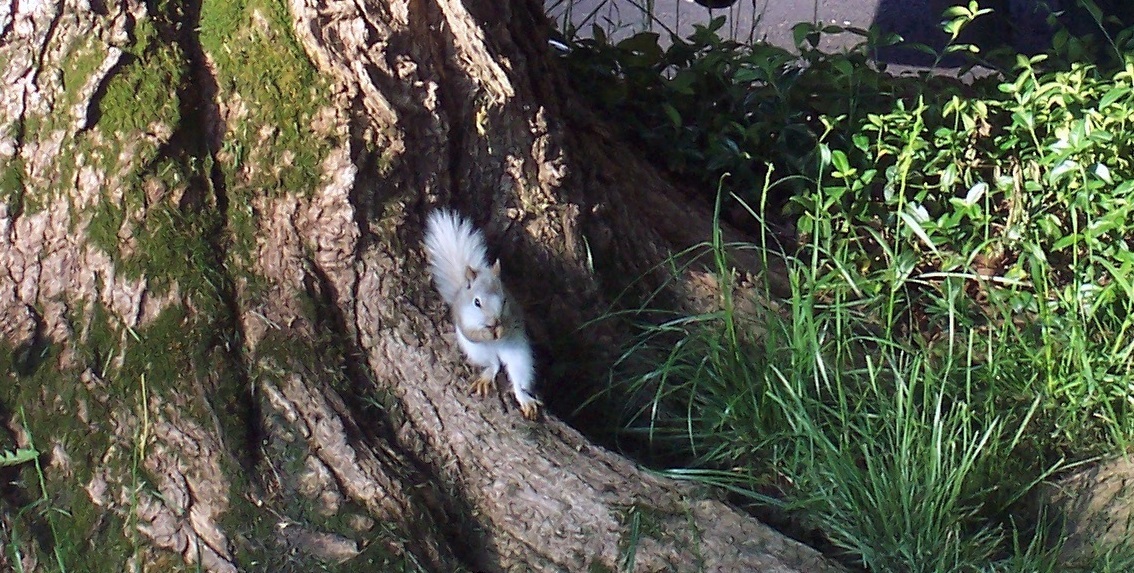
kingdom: Animalia
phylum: Chordata
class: Mammalia
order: Rodentia
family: Sciuridae
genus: Sciurus
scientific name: Sciurus carolinensis
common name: Eastern gray squirrel
